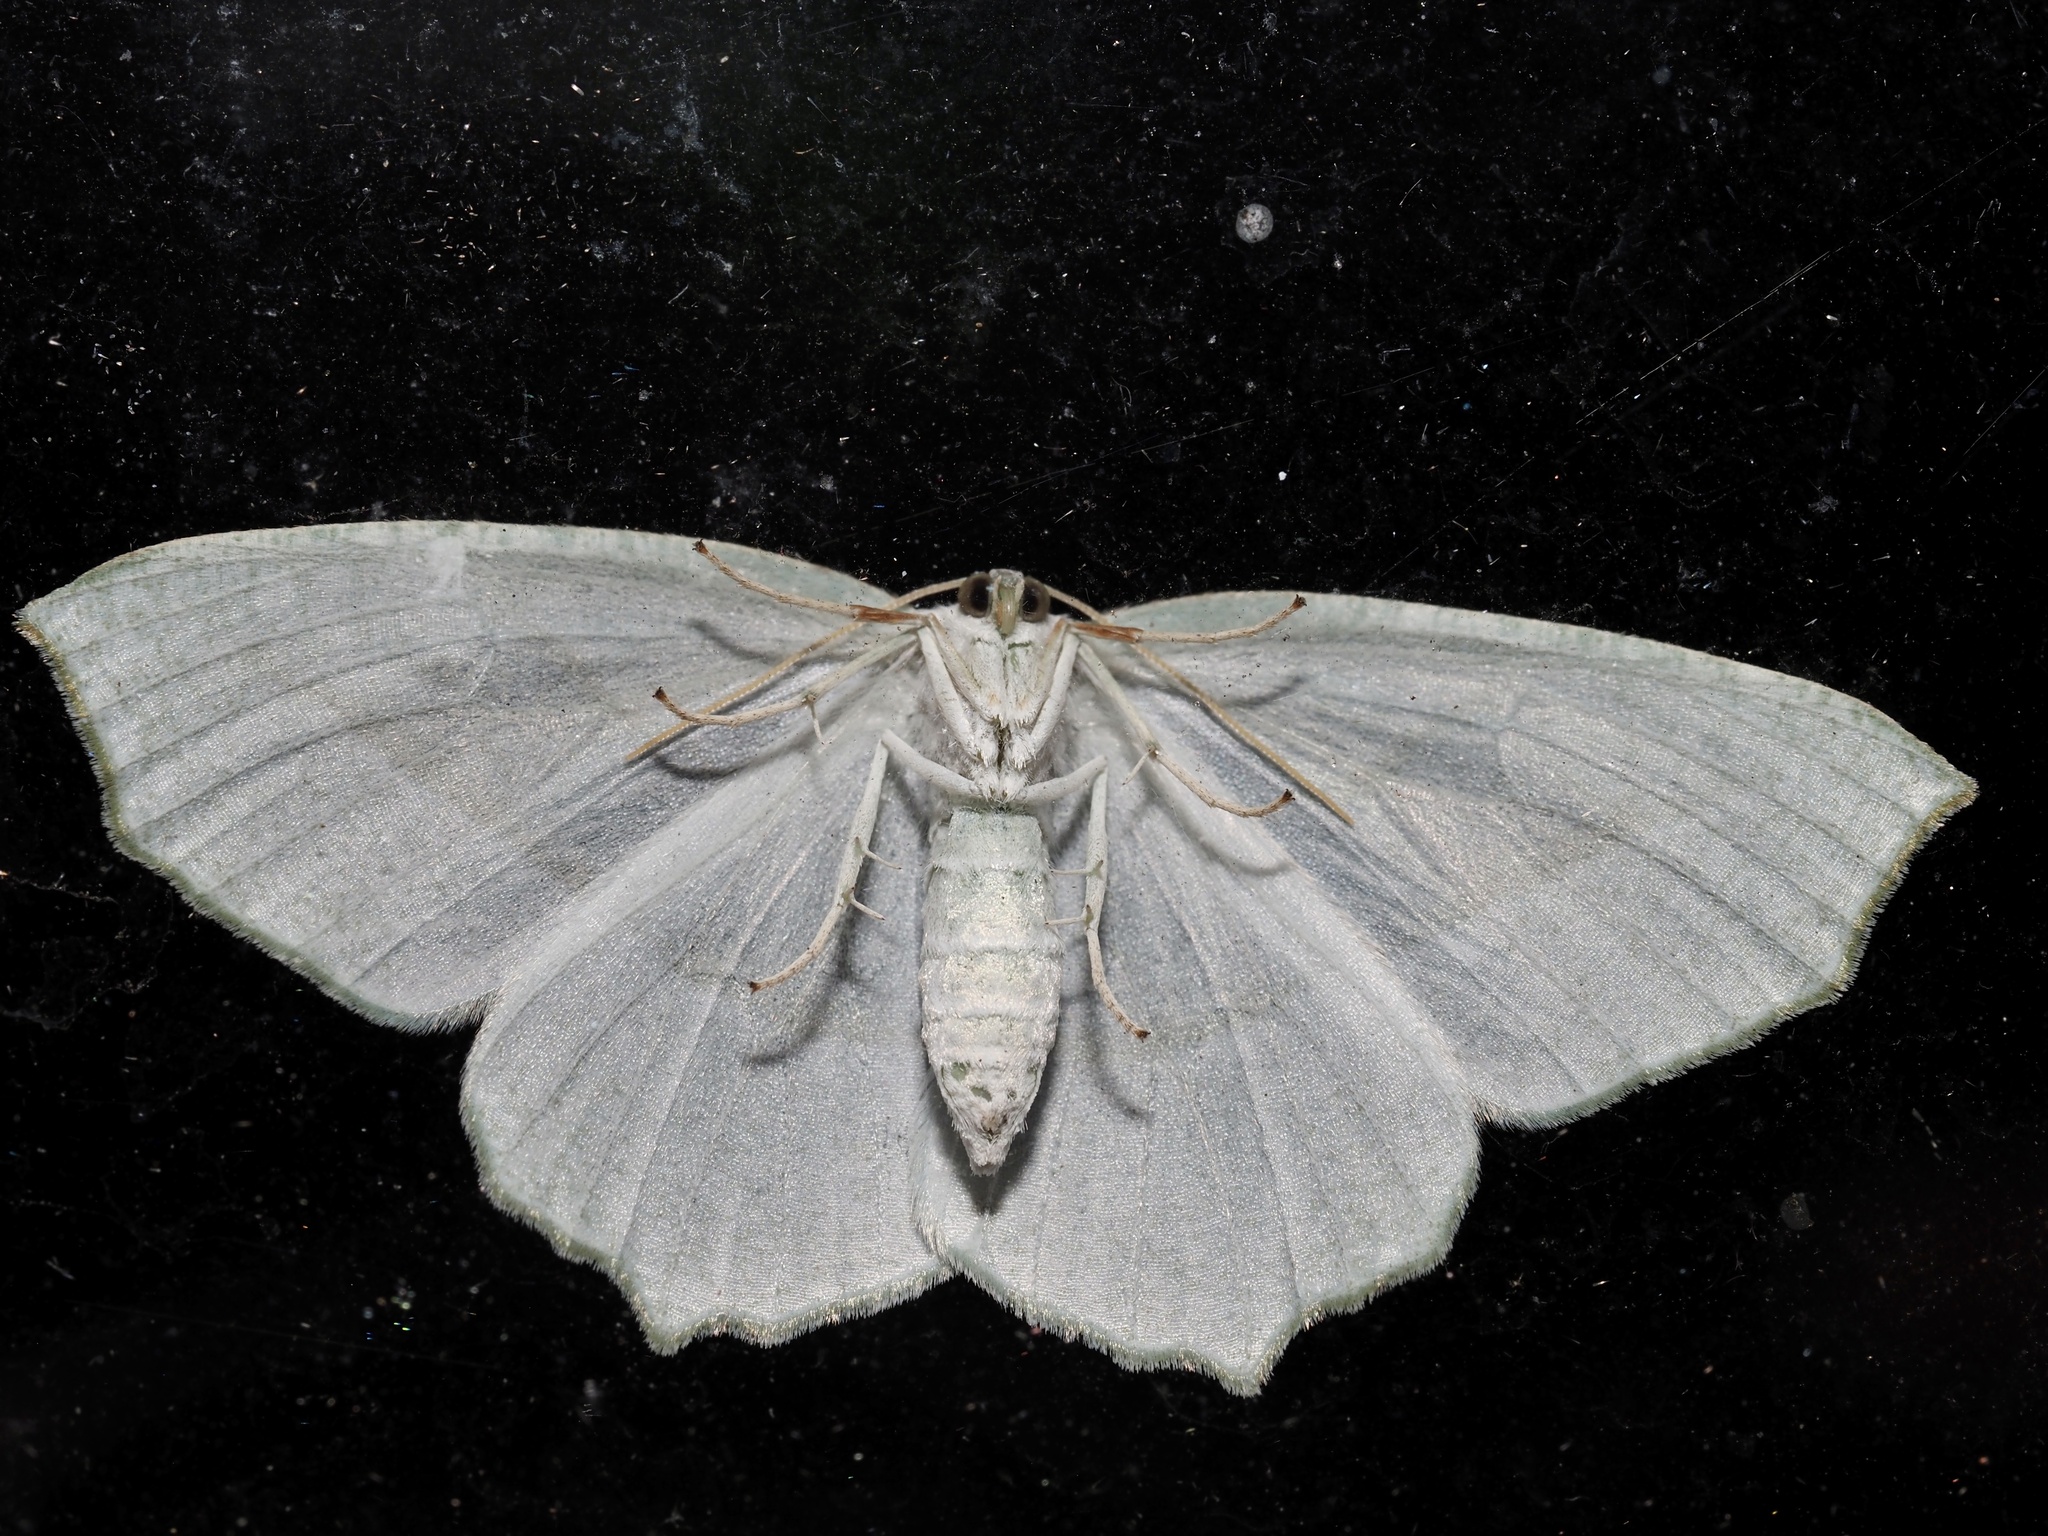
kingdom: Animalia
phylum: Arthropoda
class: Insecta
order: Lepidoptera
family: Geometridae
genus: Campaea
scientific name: Campaea perlata
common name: Fringed looper
